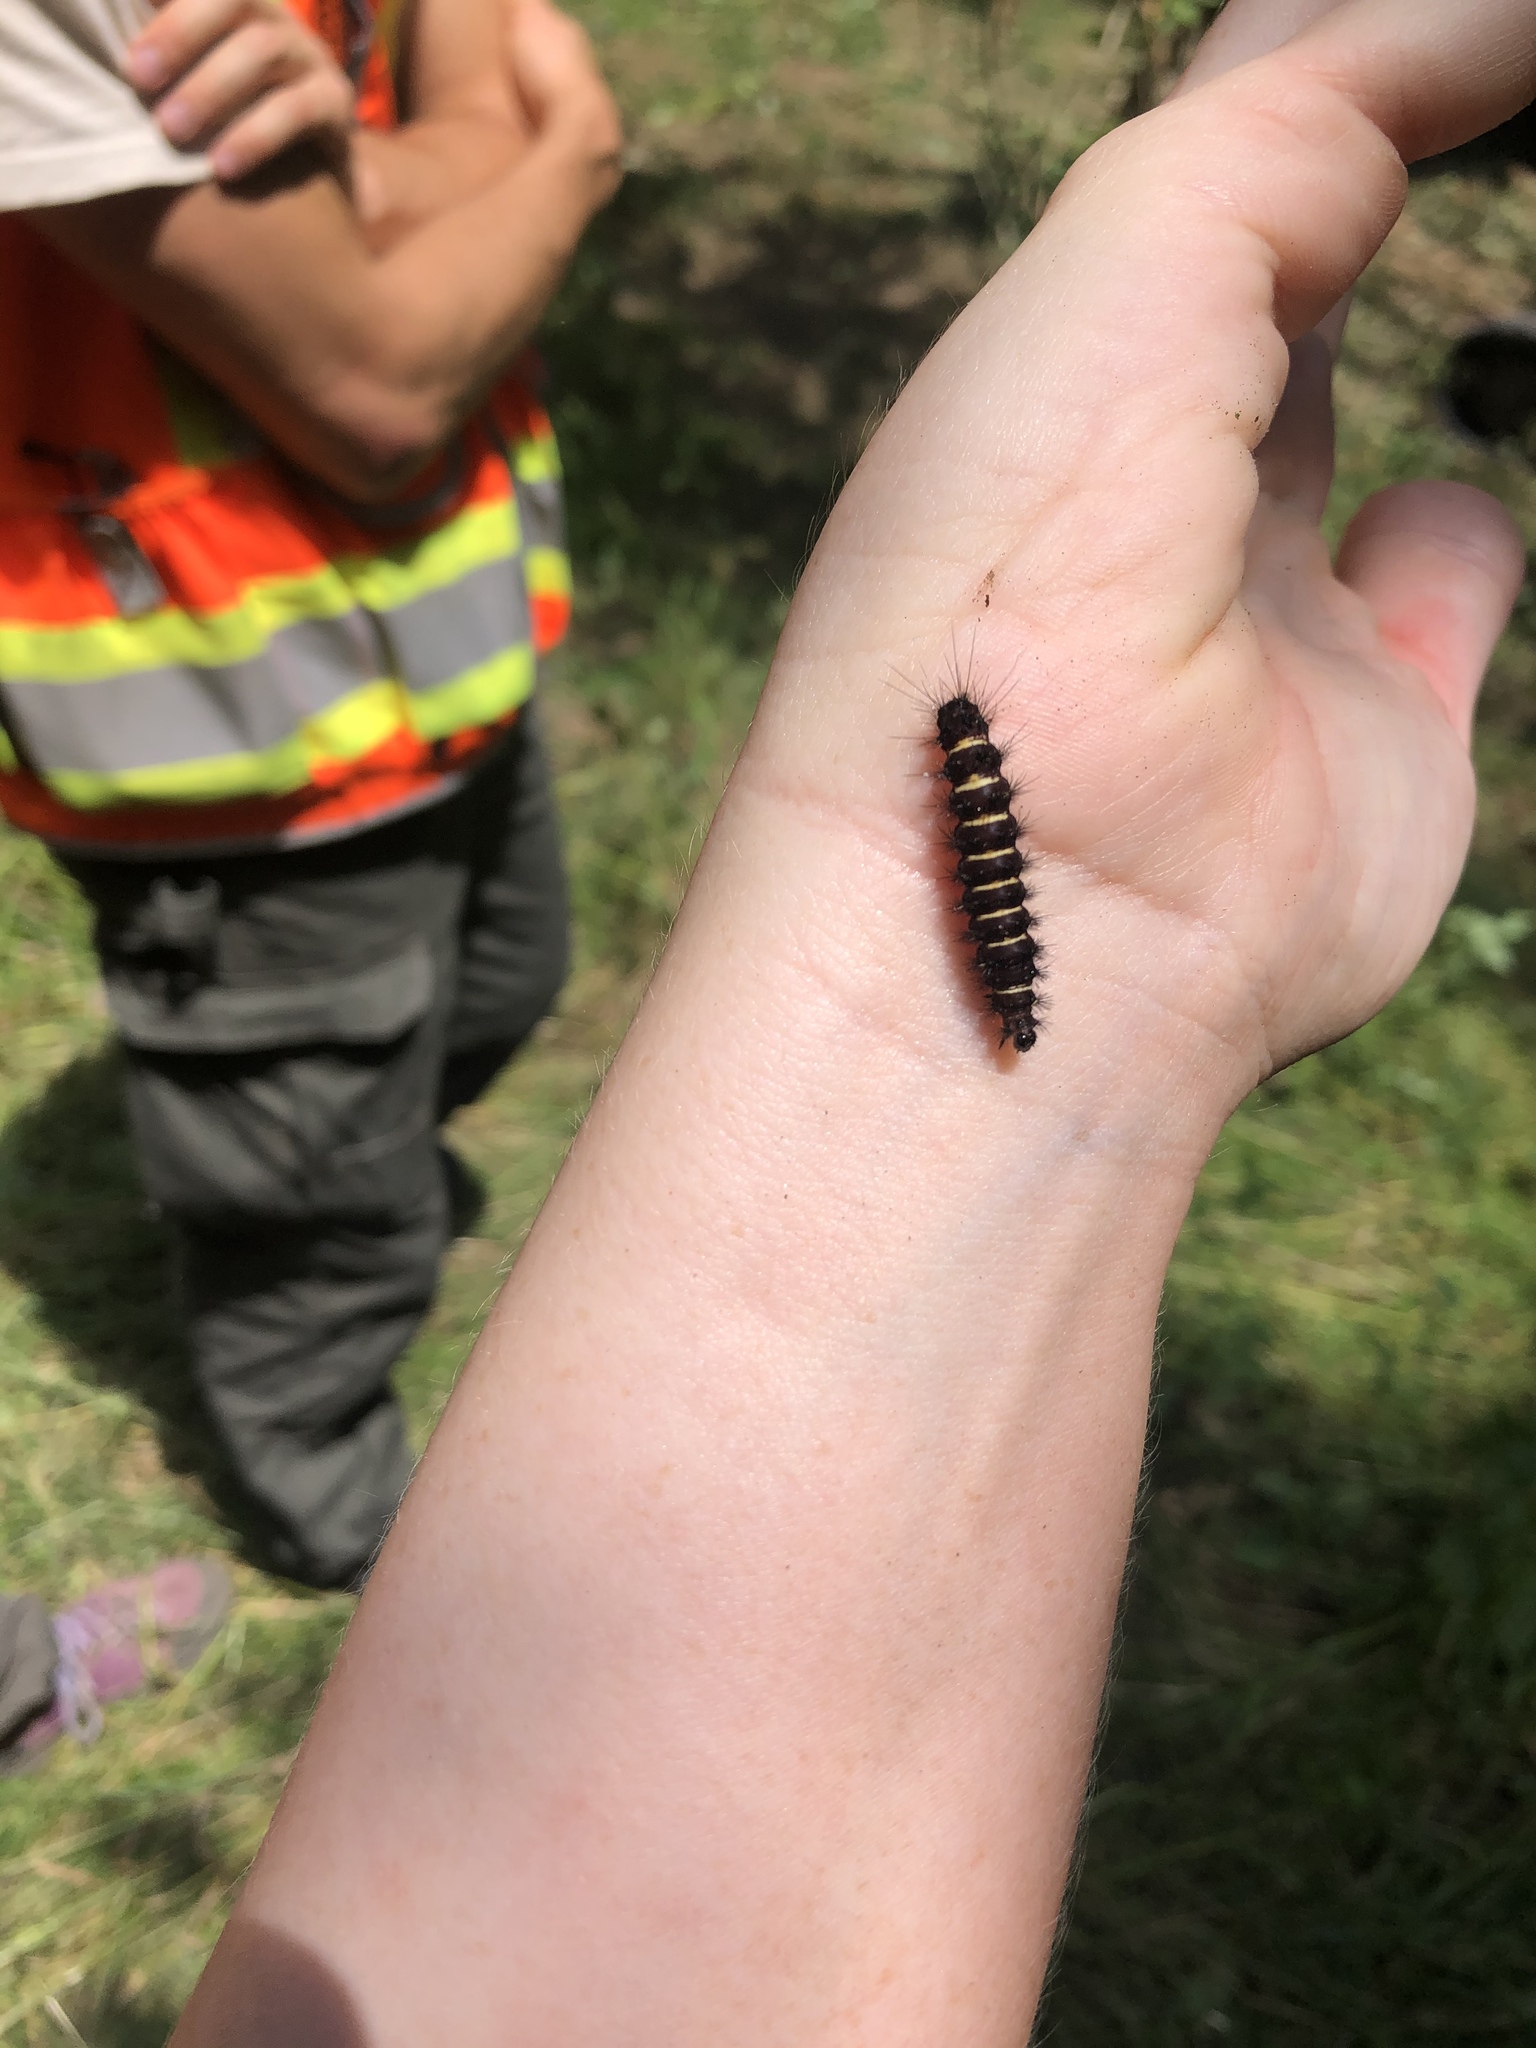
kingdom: Animalia
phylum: Arthropoda
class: Insecta
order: Lepidoptera
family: Erebidae
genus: Spilosoma
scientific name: Spilosoma congrua
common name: Agreeable tiger moth
